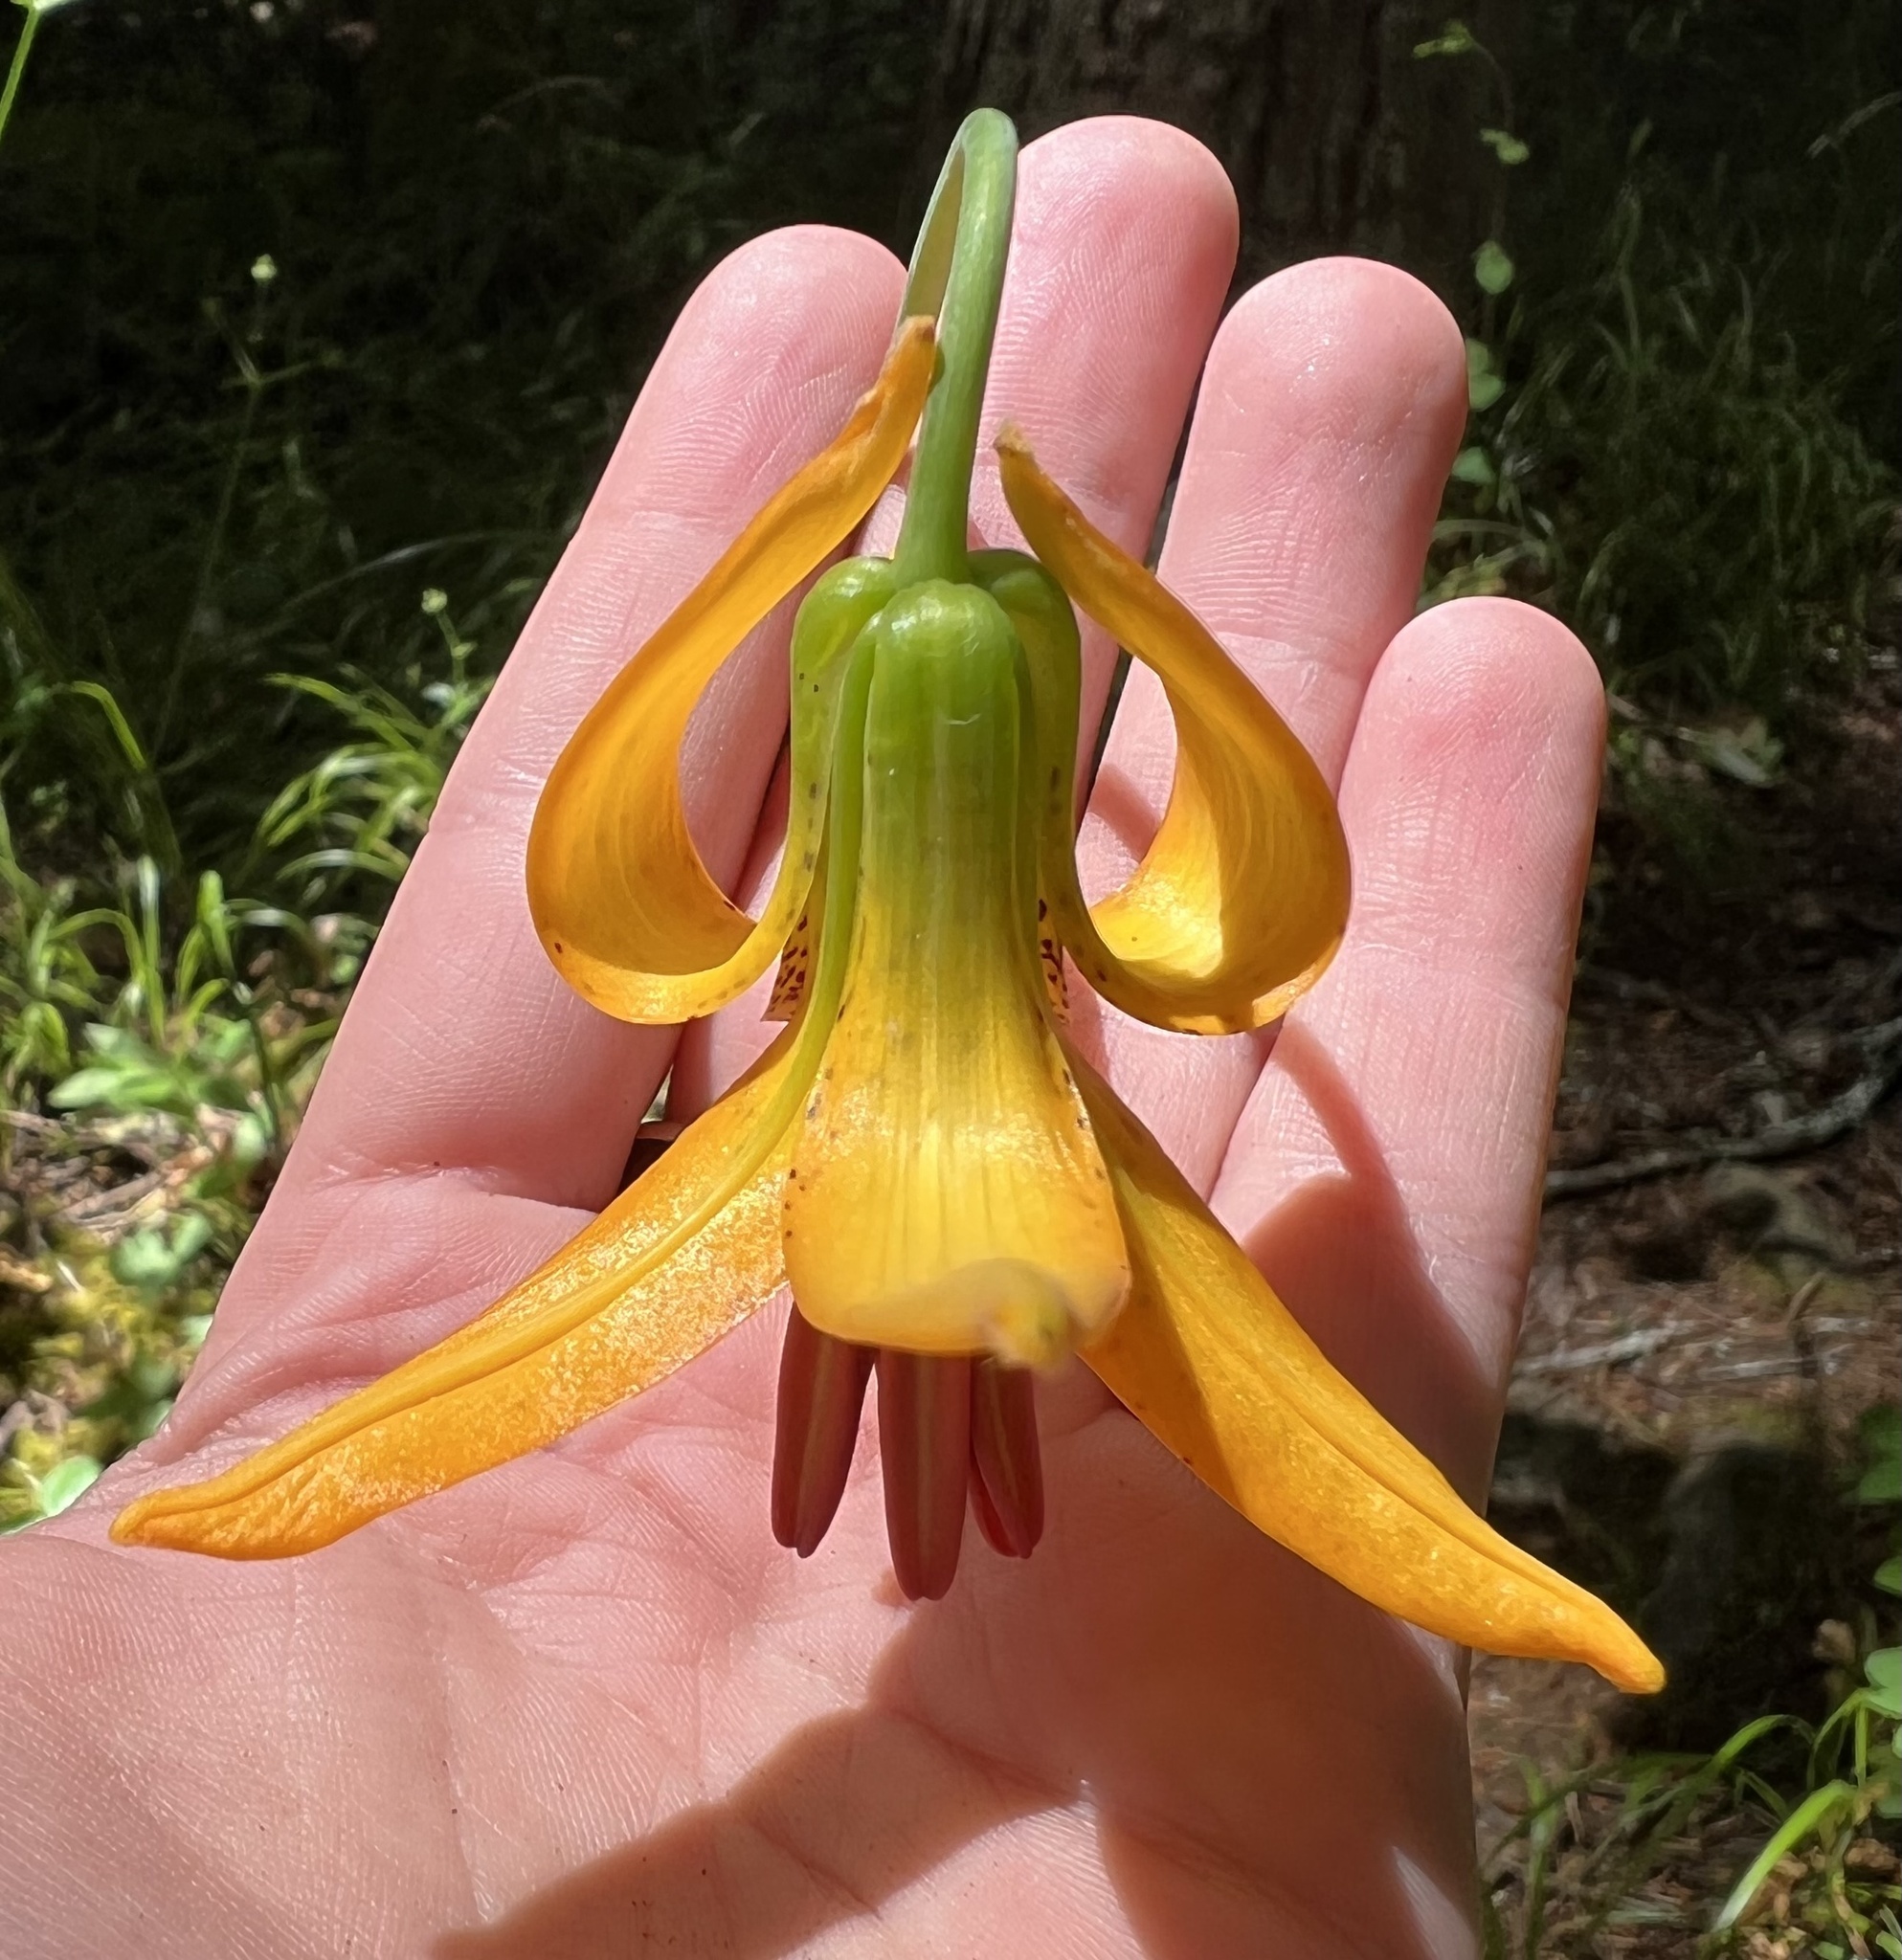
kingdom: Plantae
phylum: Tracheophyta
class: Liliopsida
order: Liliales
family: Liliaceae
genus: Lilium
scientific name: Lilium columbianum
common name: Columbia lily
